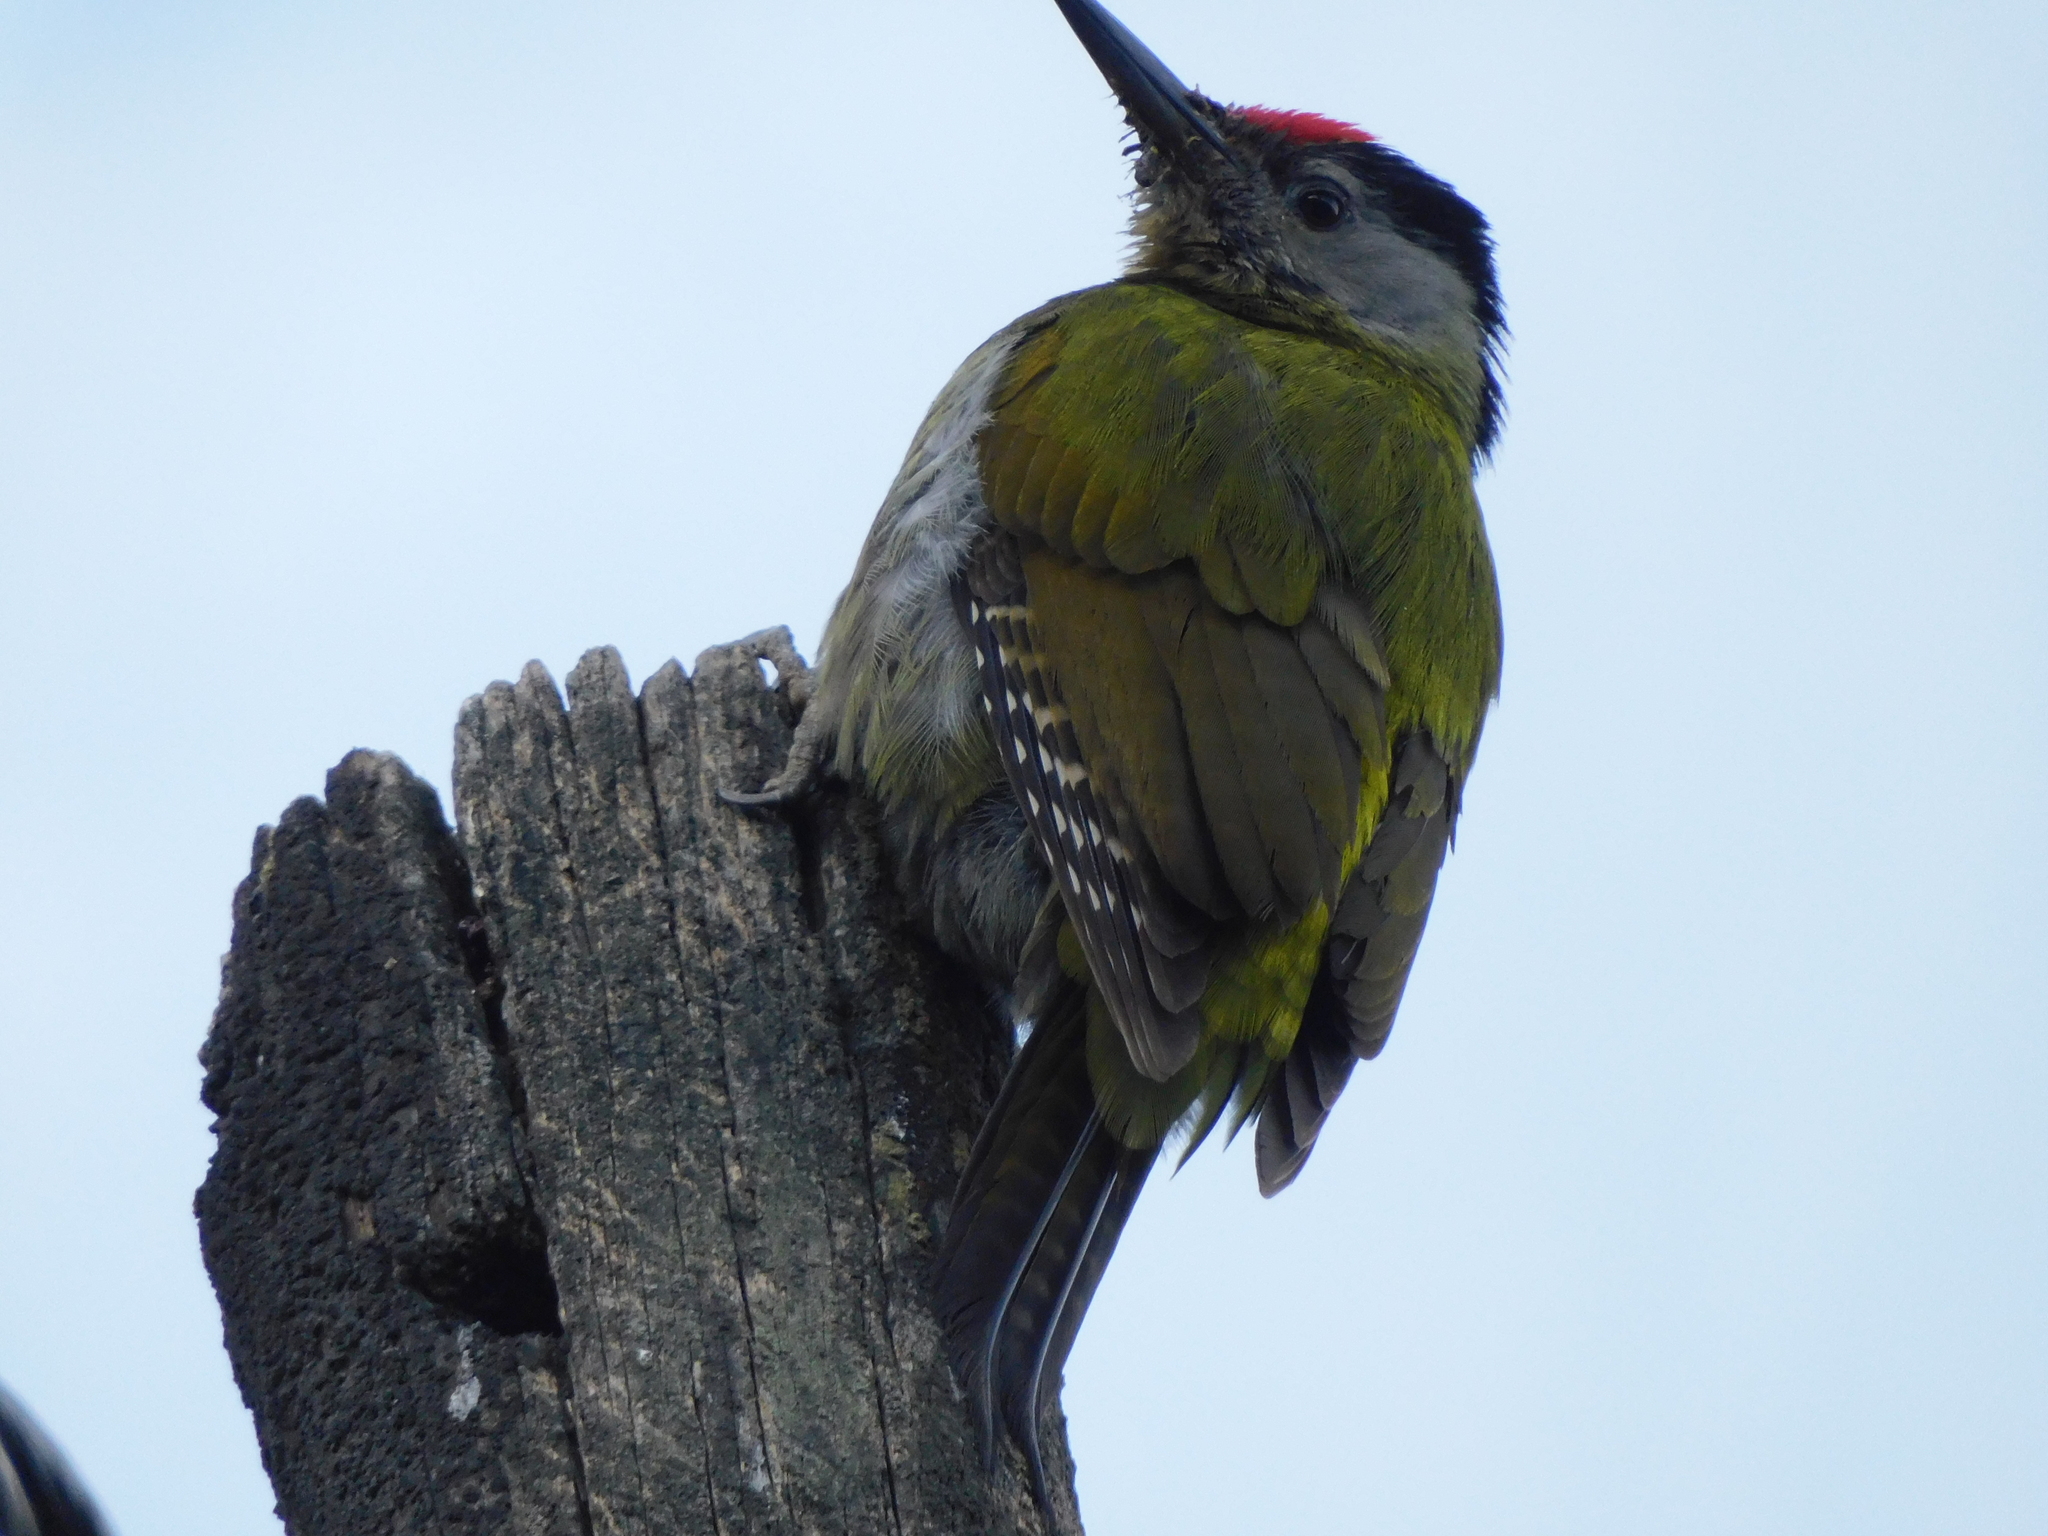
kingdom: Animalia
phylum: Chordata
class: Aves
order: Piciformes
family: Picidae
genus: Picus
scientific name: Picus canus
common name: Grey-headed woodpecker
